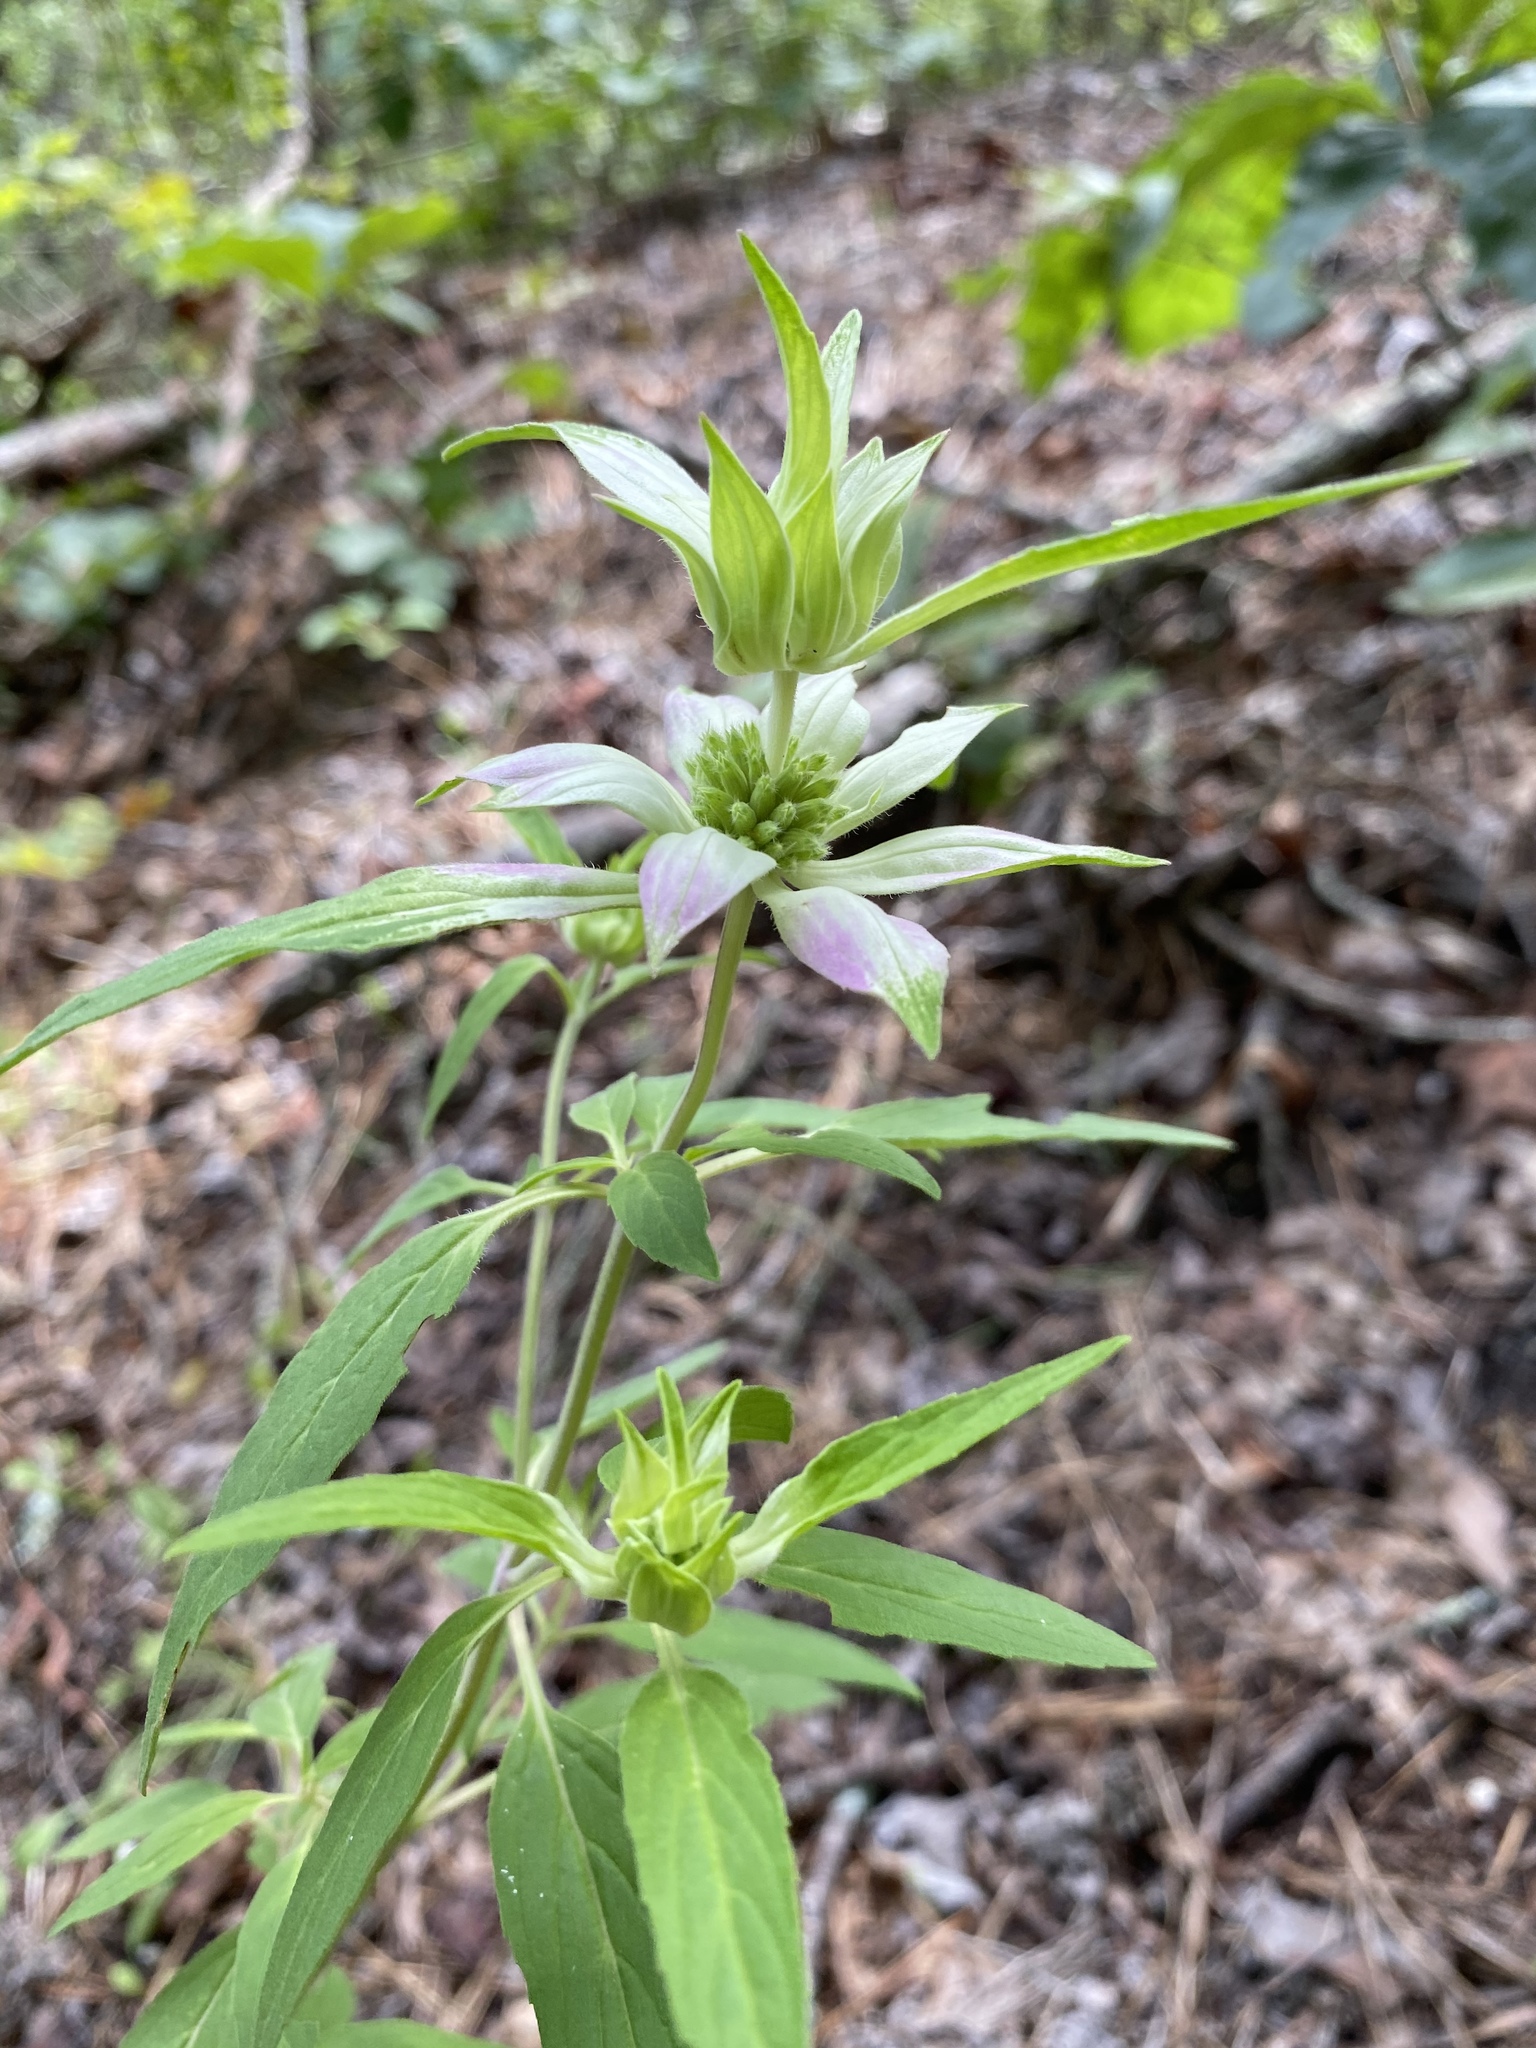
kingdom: Plantae
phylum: Tracheophyta
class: Magnoliopsida
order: Lamiales
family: Lamiaceae
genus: Monarda
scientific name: Monarda punctata
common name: Dotted monarda
